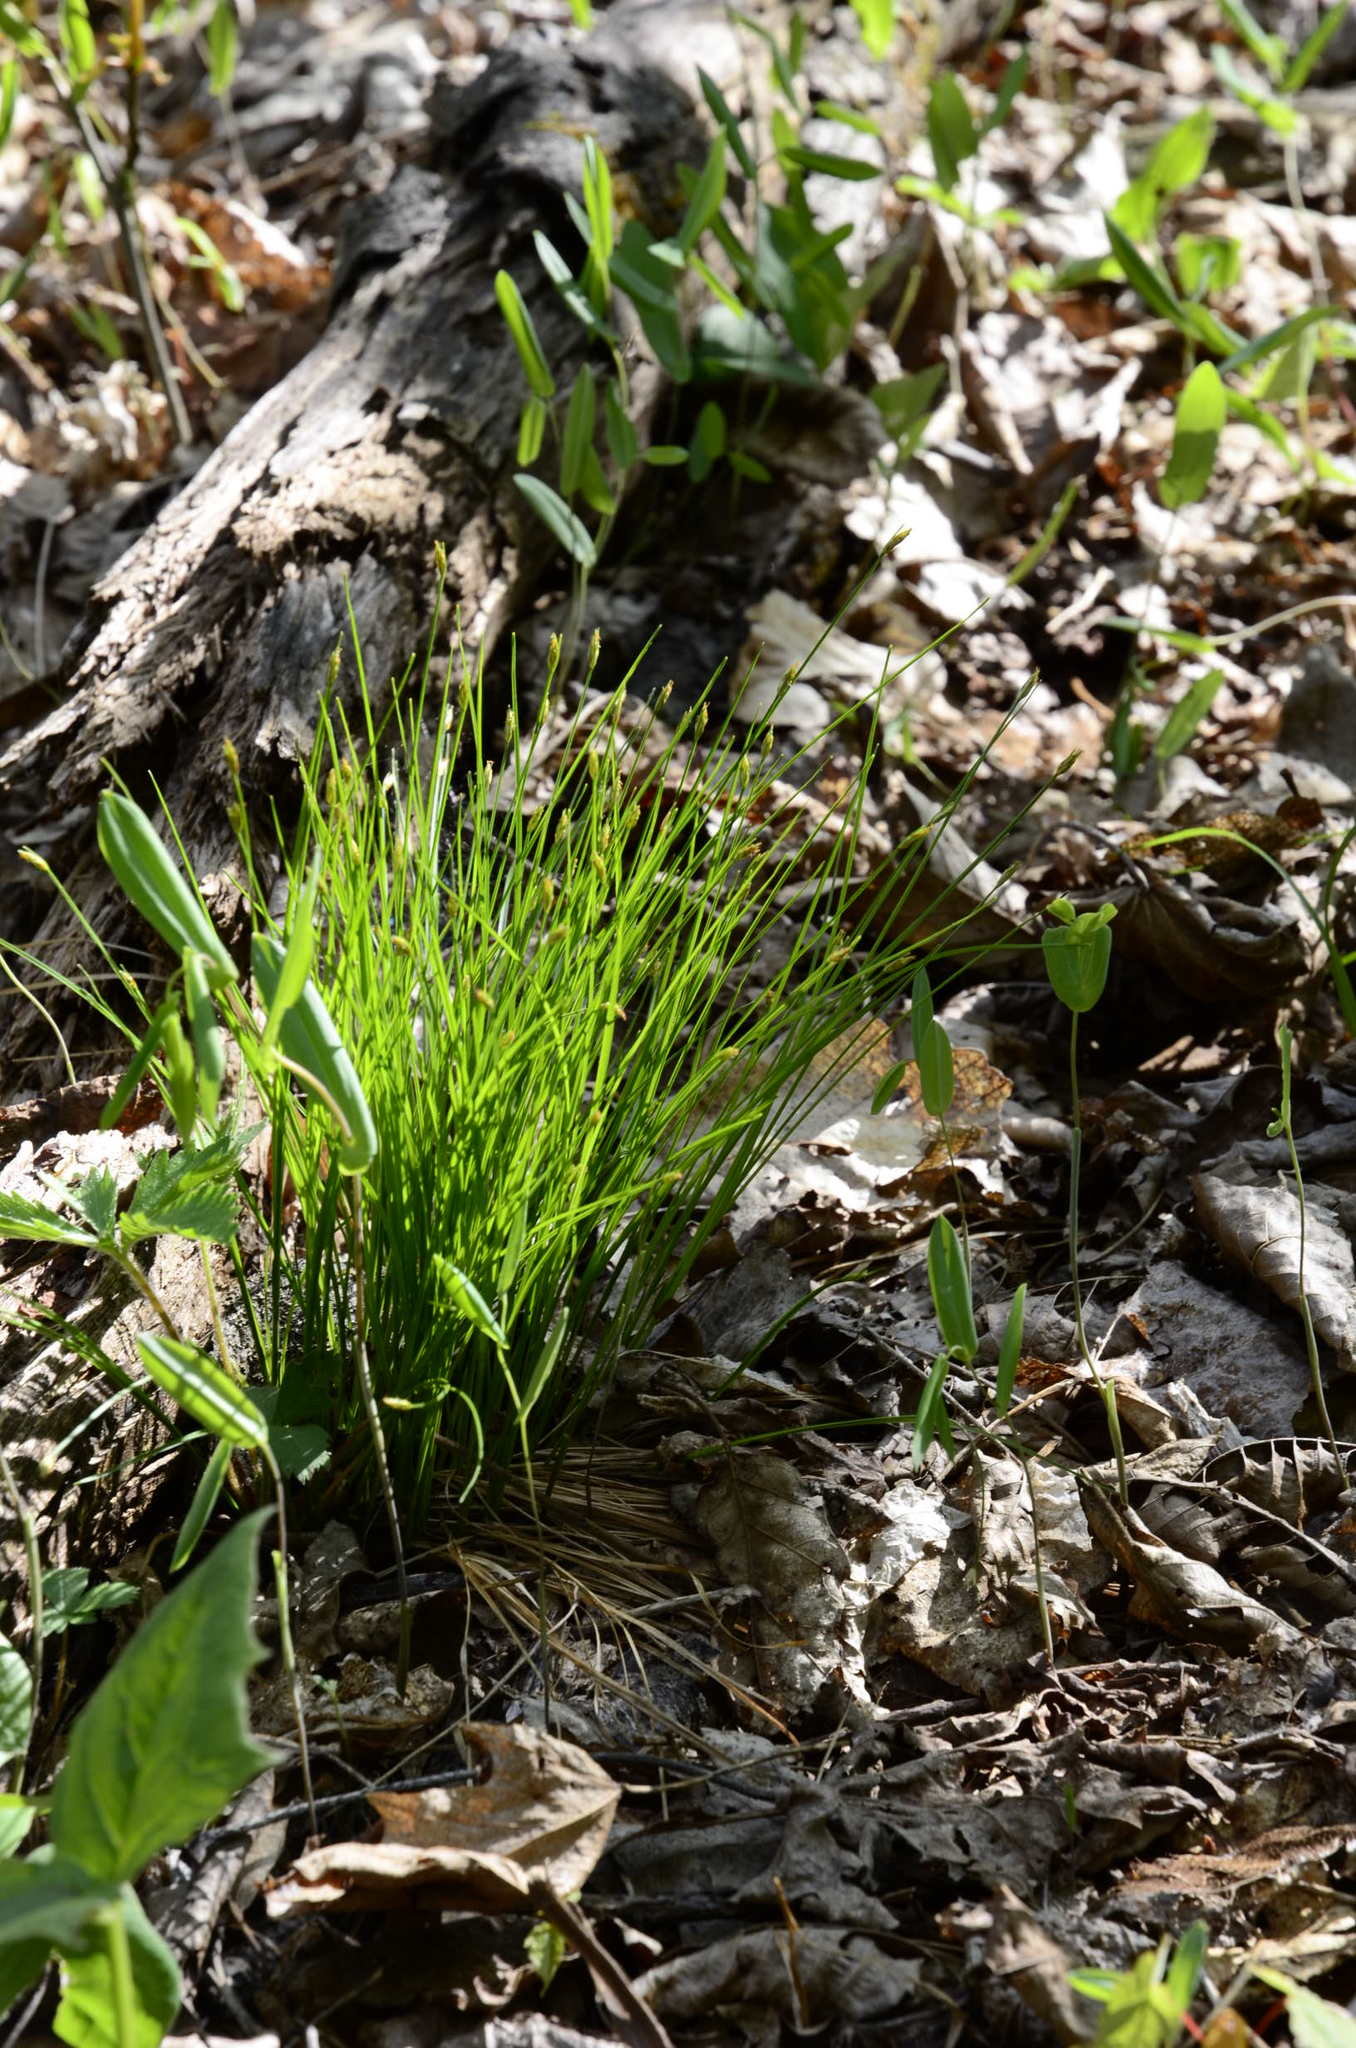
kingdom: Plantae
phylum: Tracheophyta
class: Liliopsida
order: Poales
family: Cyperaceae
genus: Trichophorum
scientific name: Trichophorum planifolium
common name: Bashful bulrush
